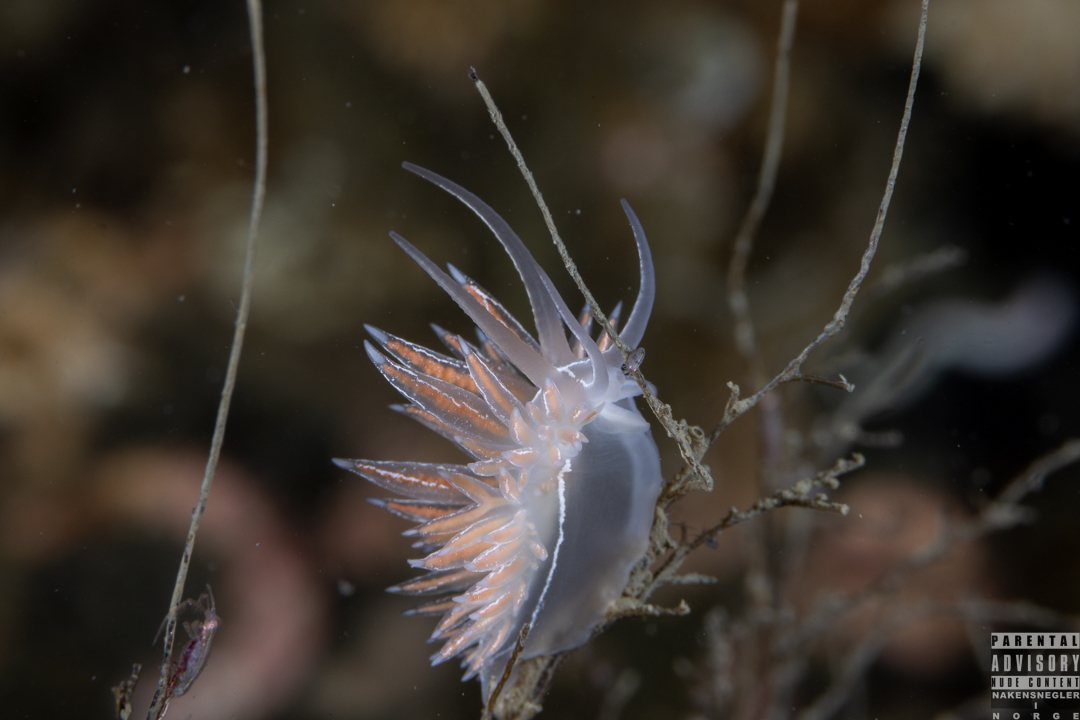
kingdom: Animalia
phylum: Mollusca
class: Gastropoda
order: Nudibranchia
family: Coryphellidae
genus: Coryphella
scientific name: Coryphella chriskaugei
